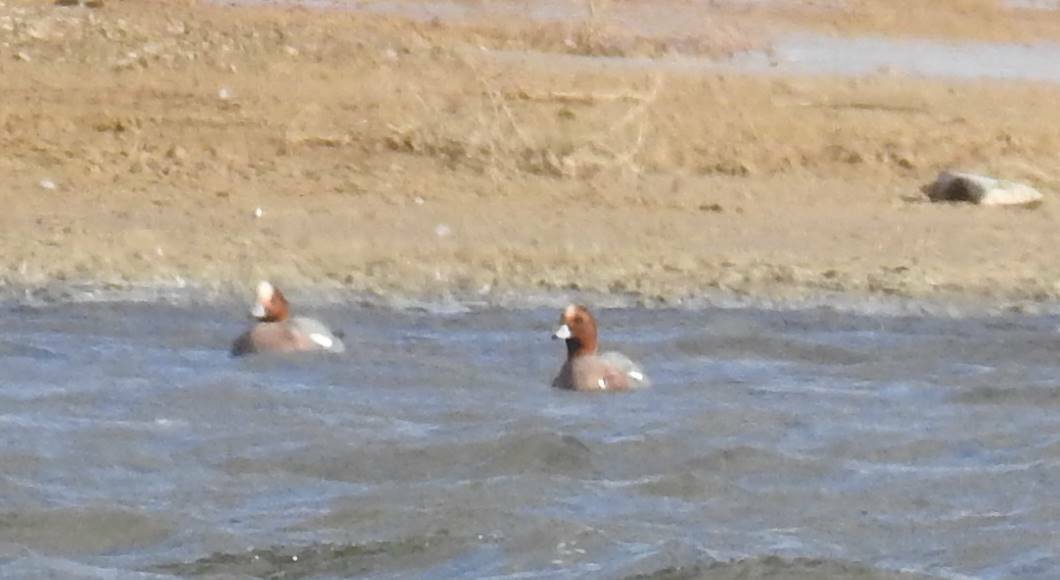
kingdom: Animalia
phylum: Chordata
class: Aves
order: Anseriformes
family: Anatidae
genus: Mareca
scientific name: Mareca penelope
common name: Eurasian wigeon
